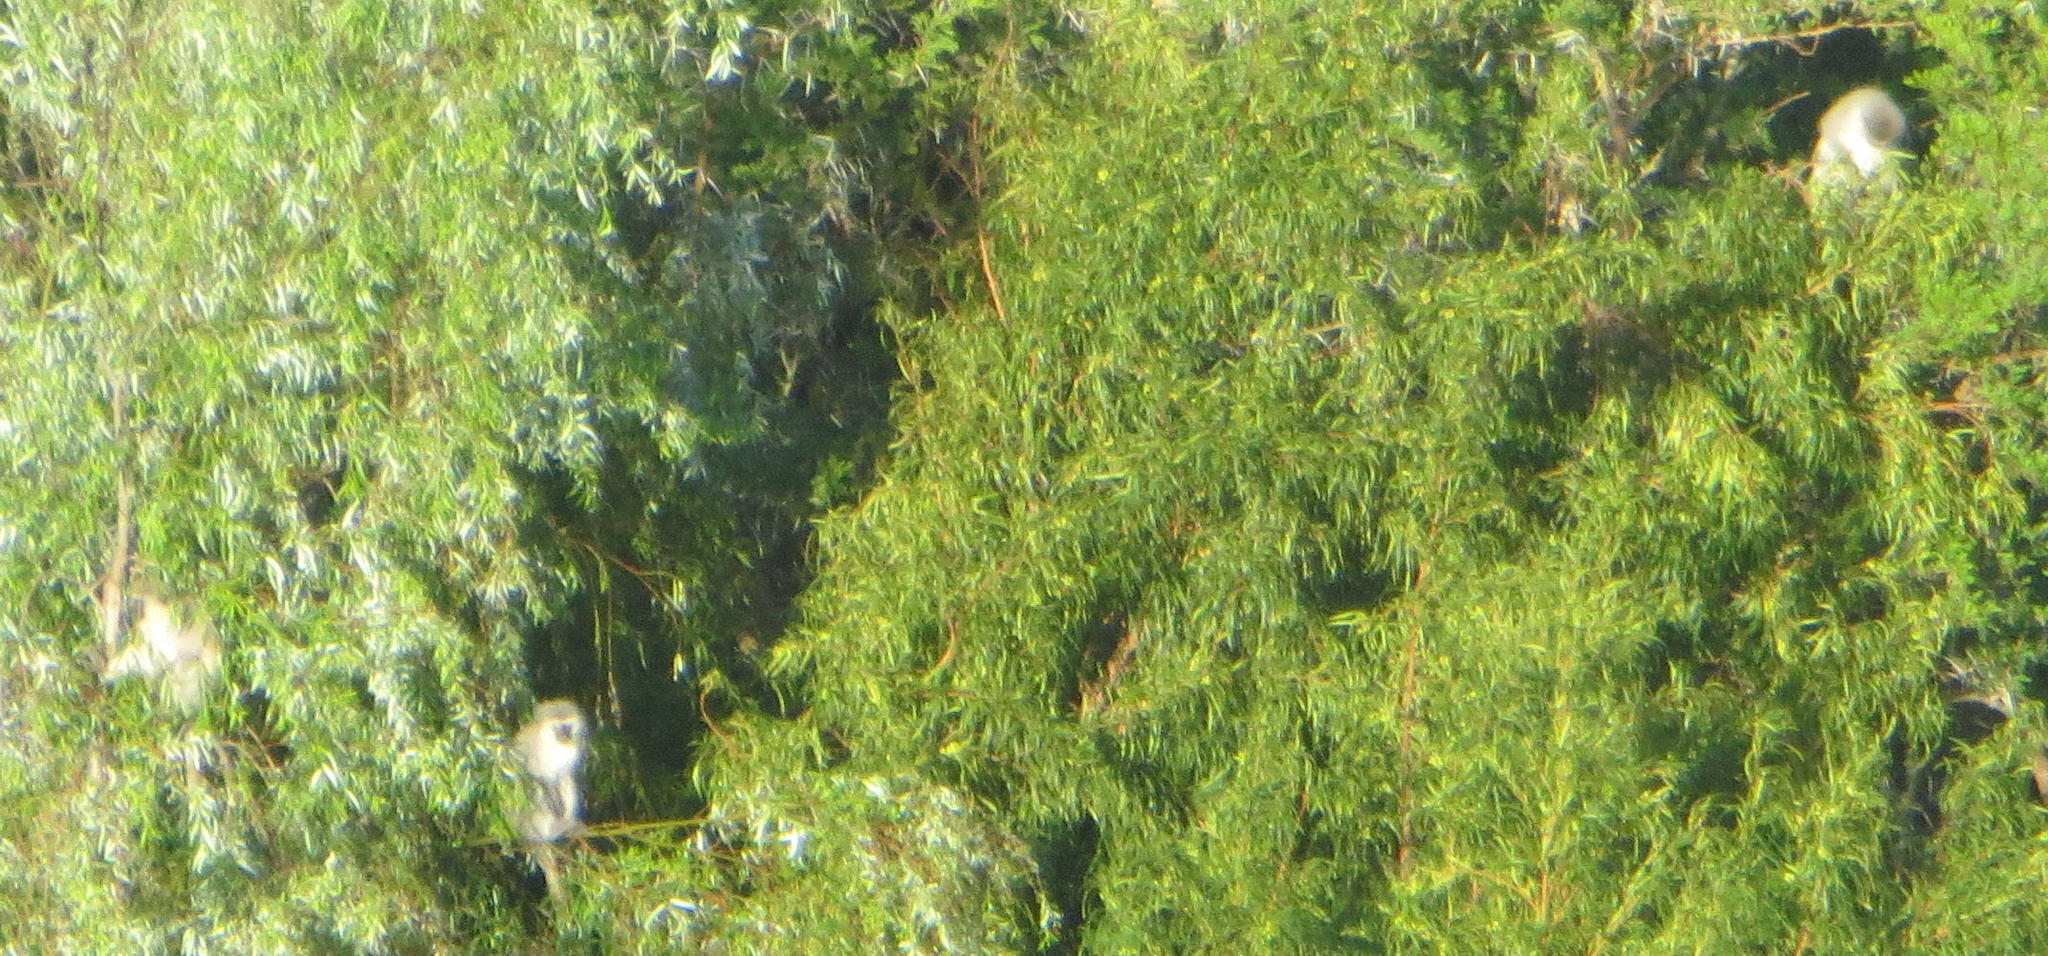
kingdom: Animalia
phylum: Chordata
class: Mammalia
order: Primates
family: Cercopithecidae
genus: Chlorocebus
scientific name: Chlorocebus pygerythrus
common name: Vervet monkey
